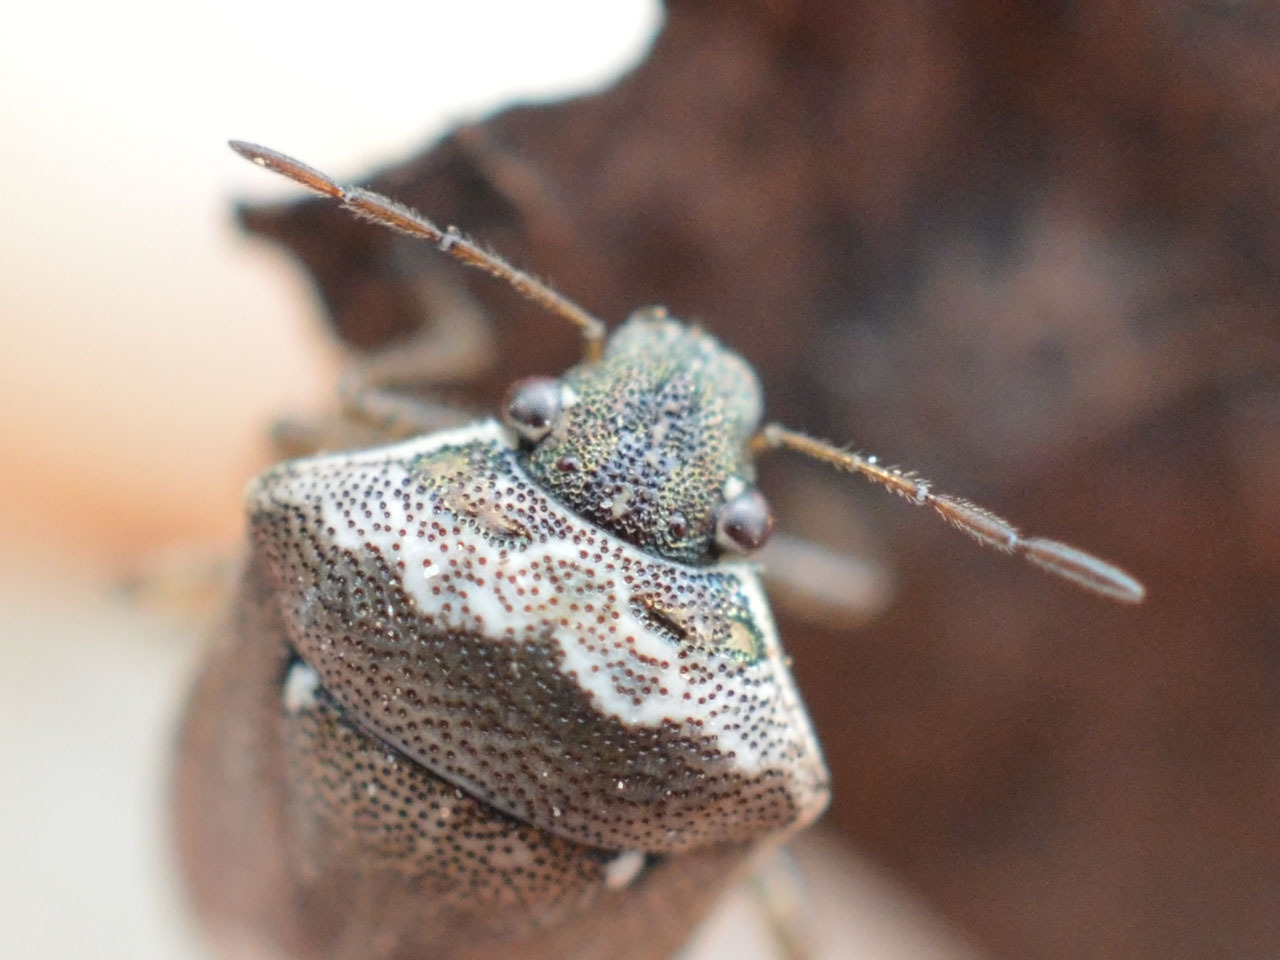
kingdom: Animalia
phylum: Arthropoda
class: Insecta
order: Hemiptera
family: Pentatomidae
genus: Eysarcoris
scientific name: Eysarcoris ventralis
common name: White-spotted stink bug
